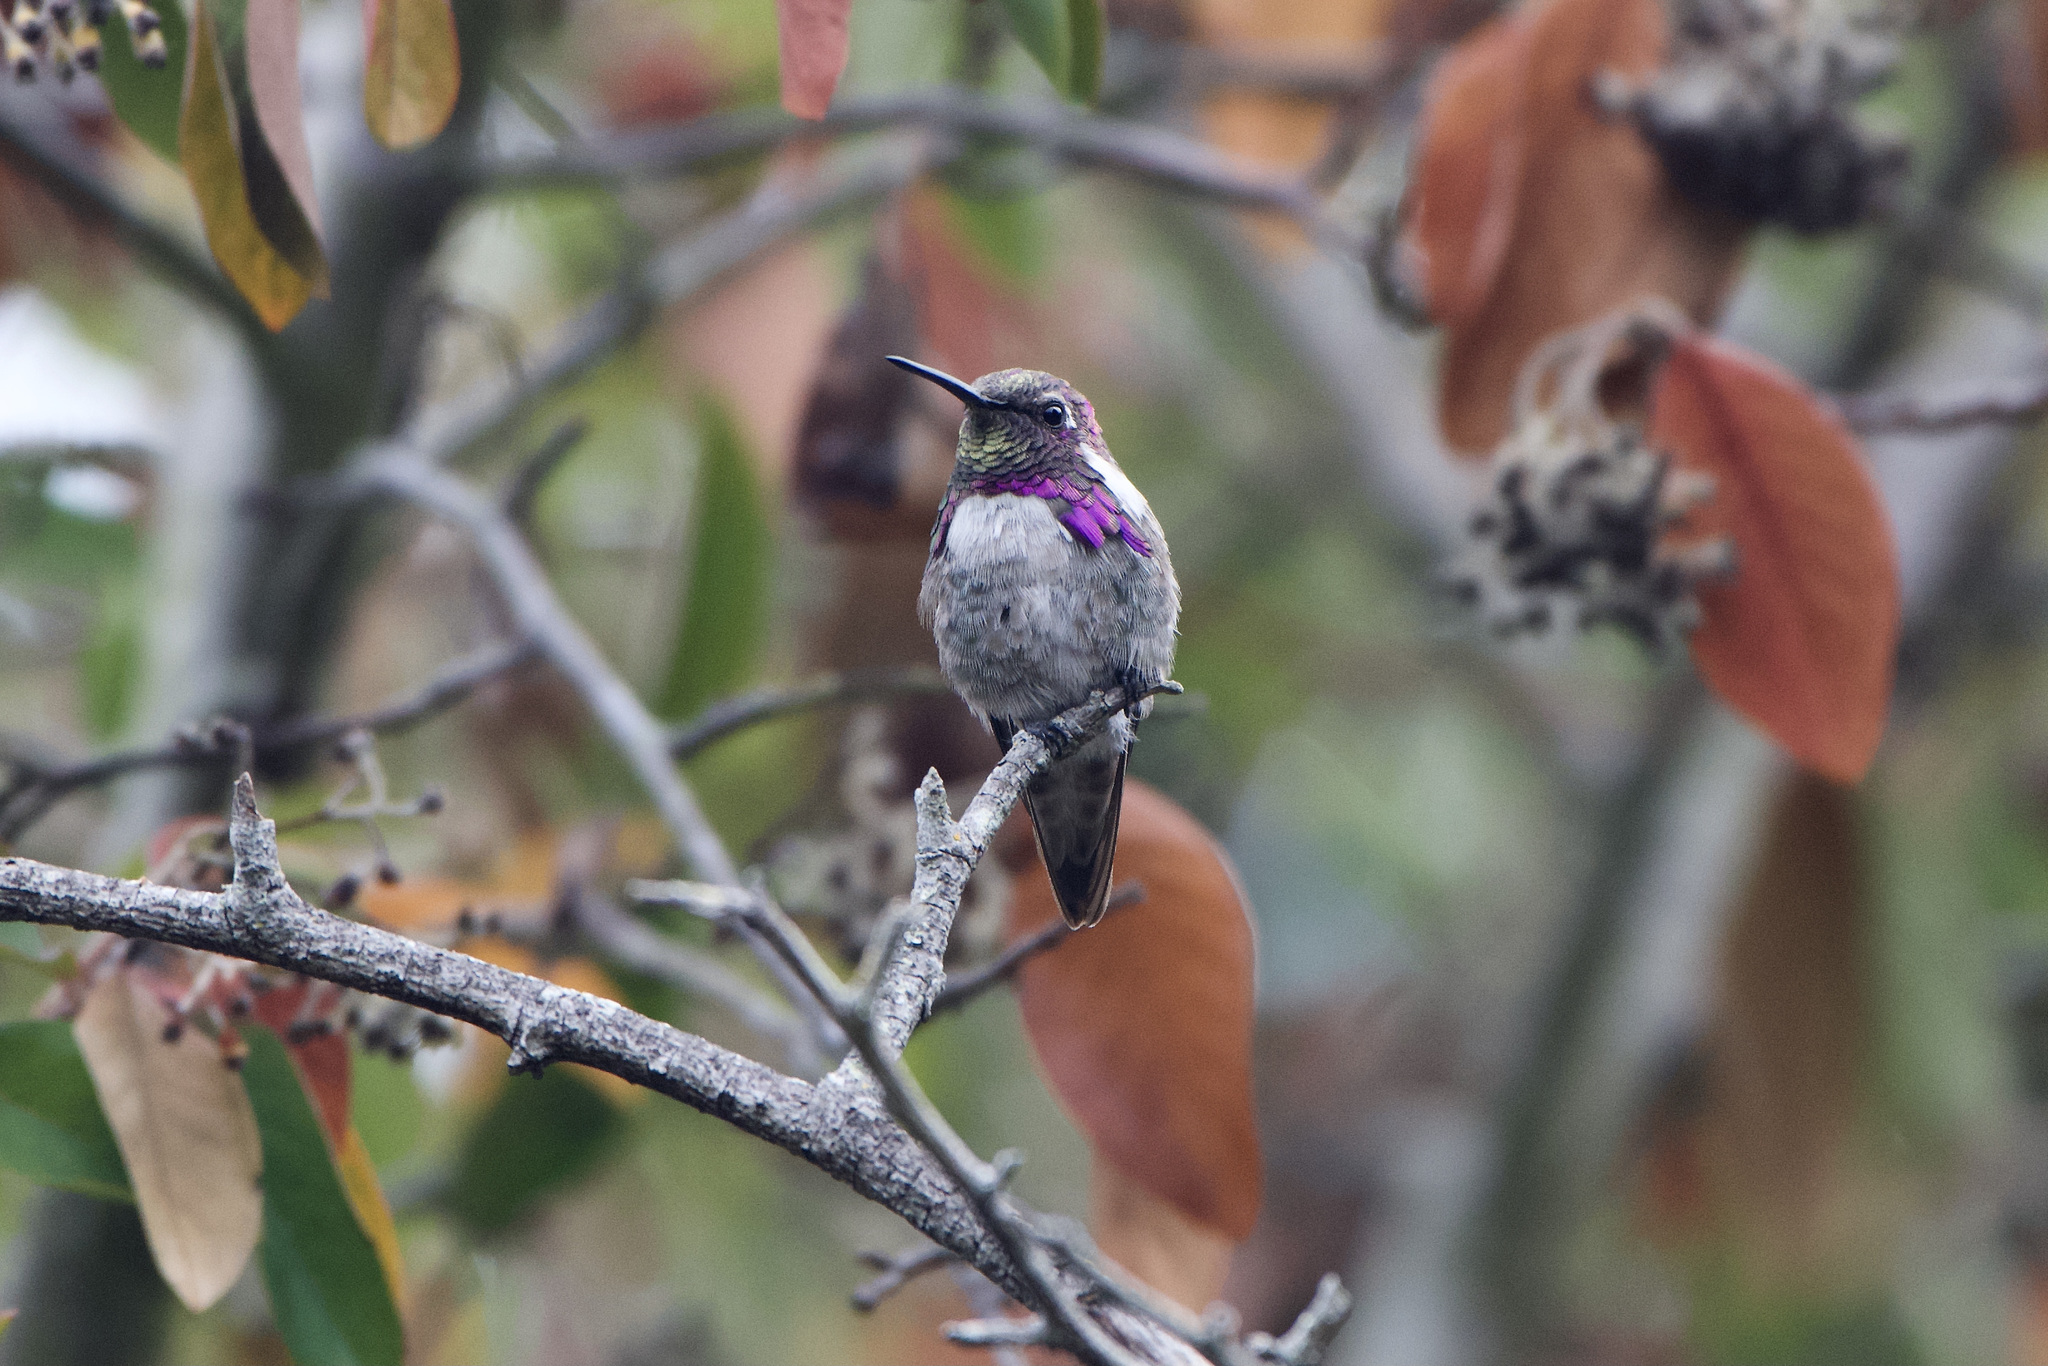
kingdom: Animalia
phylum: Chordata
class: Aves
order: Apodiformes
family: Trochilidae
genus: Calypte
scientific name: Calypte costae
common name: Costa's hummingbird
